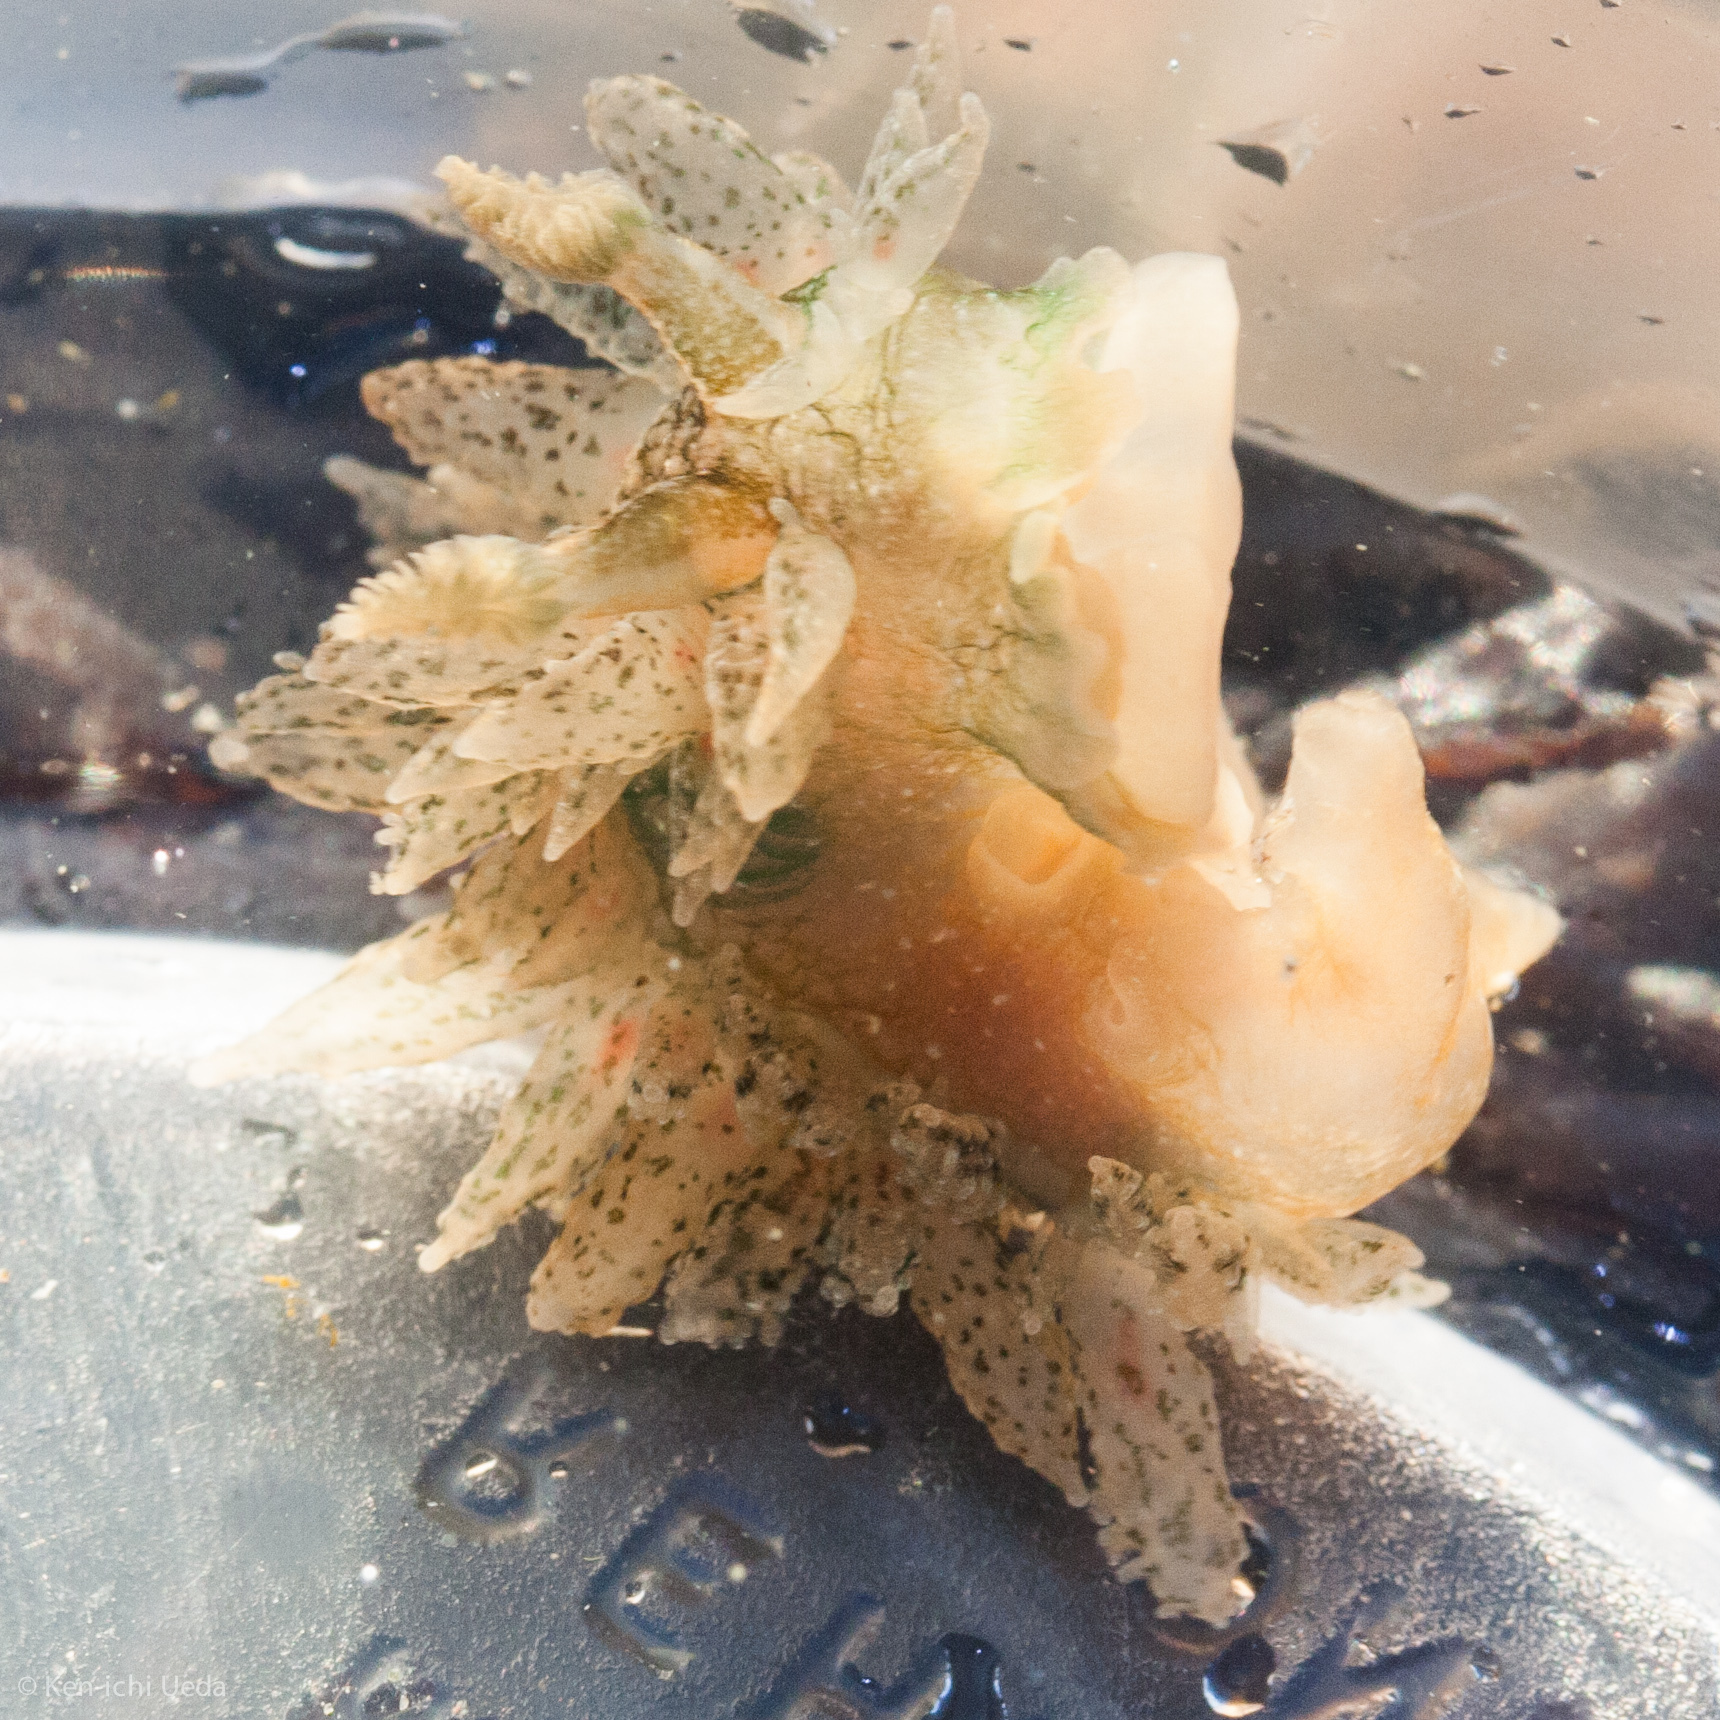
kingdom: Animalia
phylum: Mollusca
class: Gastropoda
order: Nudibranchia
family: Dironidae
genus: Dirona
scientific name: Dirona picta
